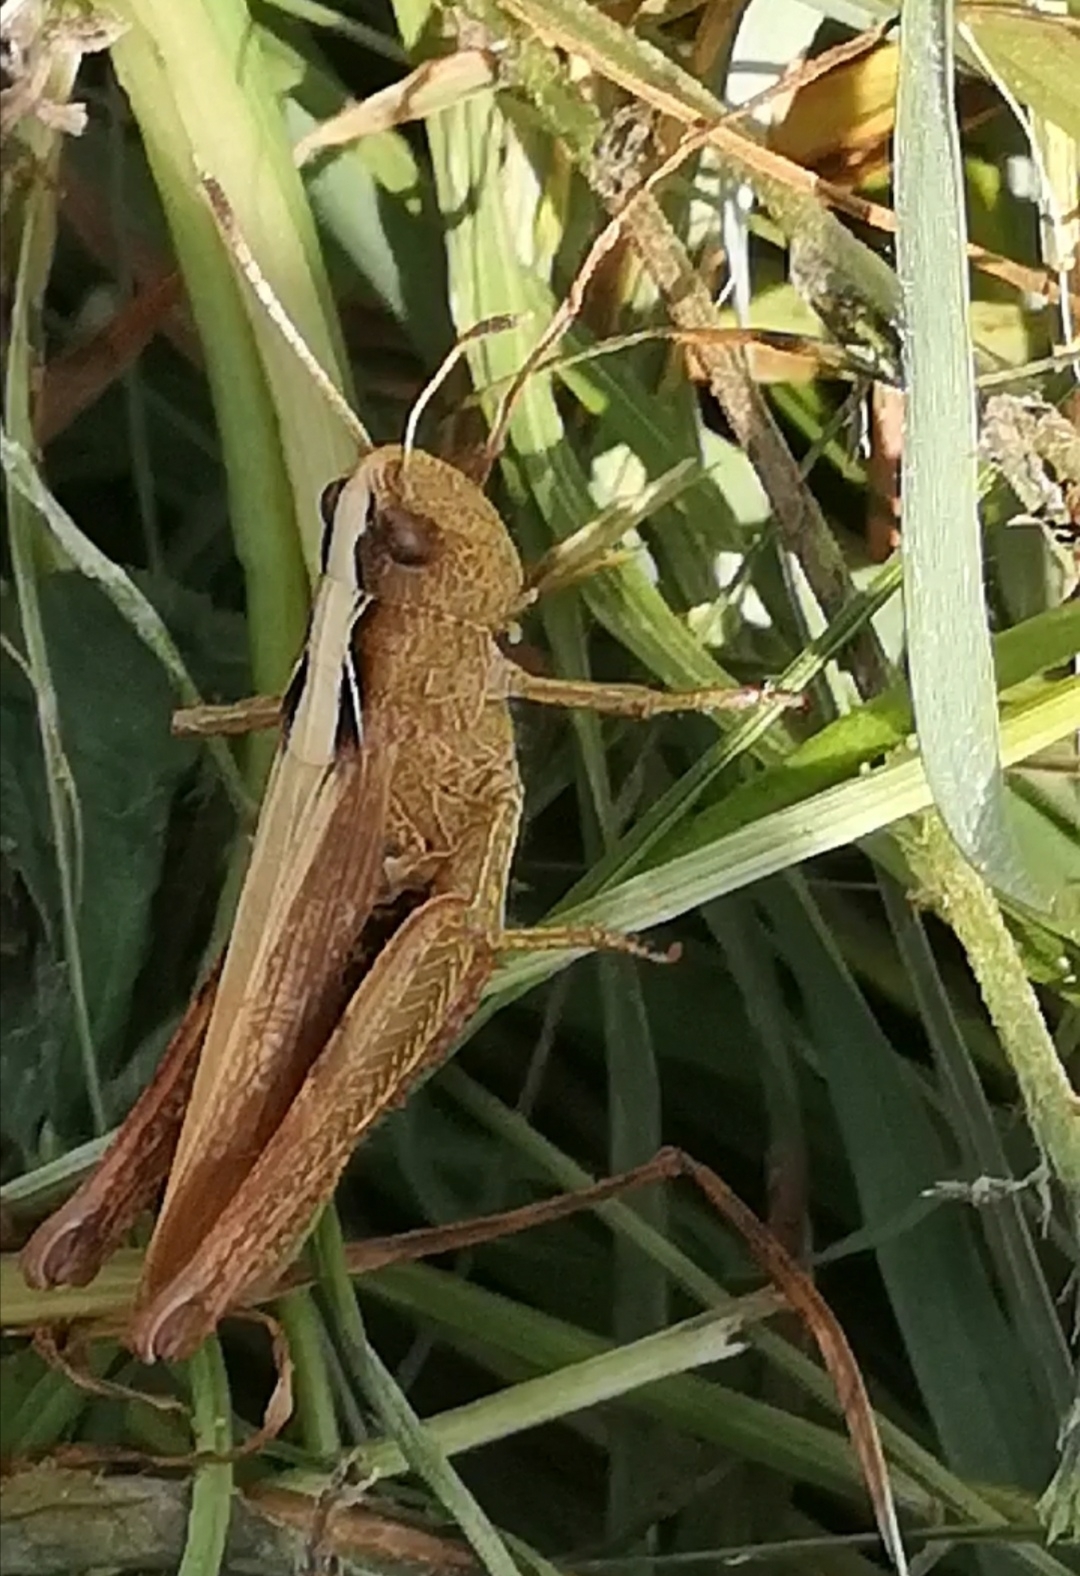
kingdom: Animalia
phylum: Arthropoda
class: Insecta
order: Orthoptera
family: Acrididae
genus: Gomphocerippus
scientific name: Gomphocerippus rufus
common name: Rufous grasshopper
